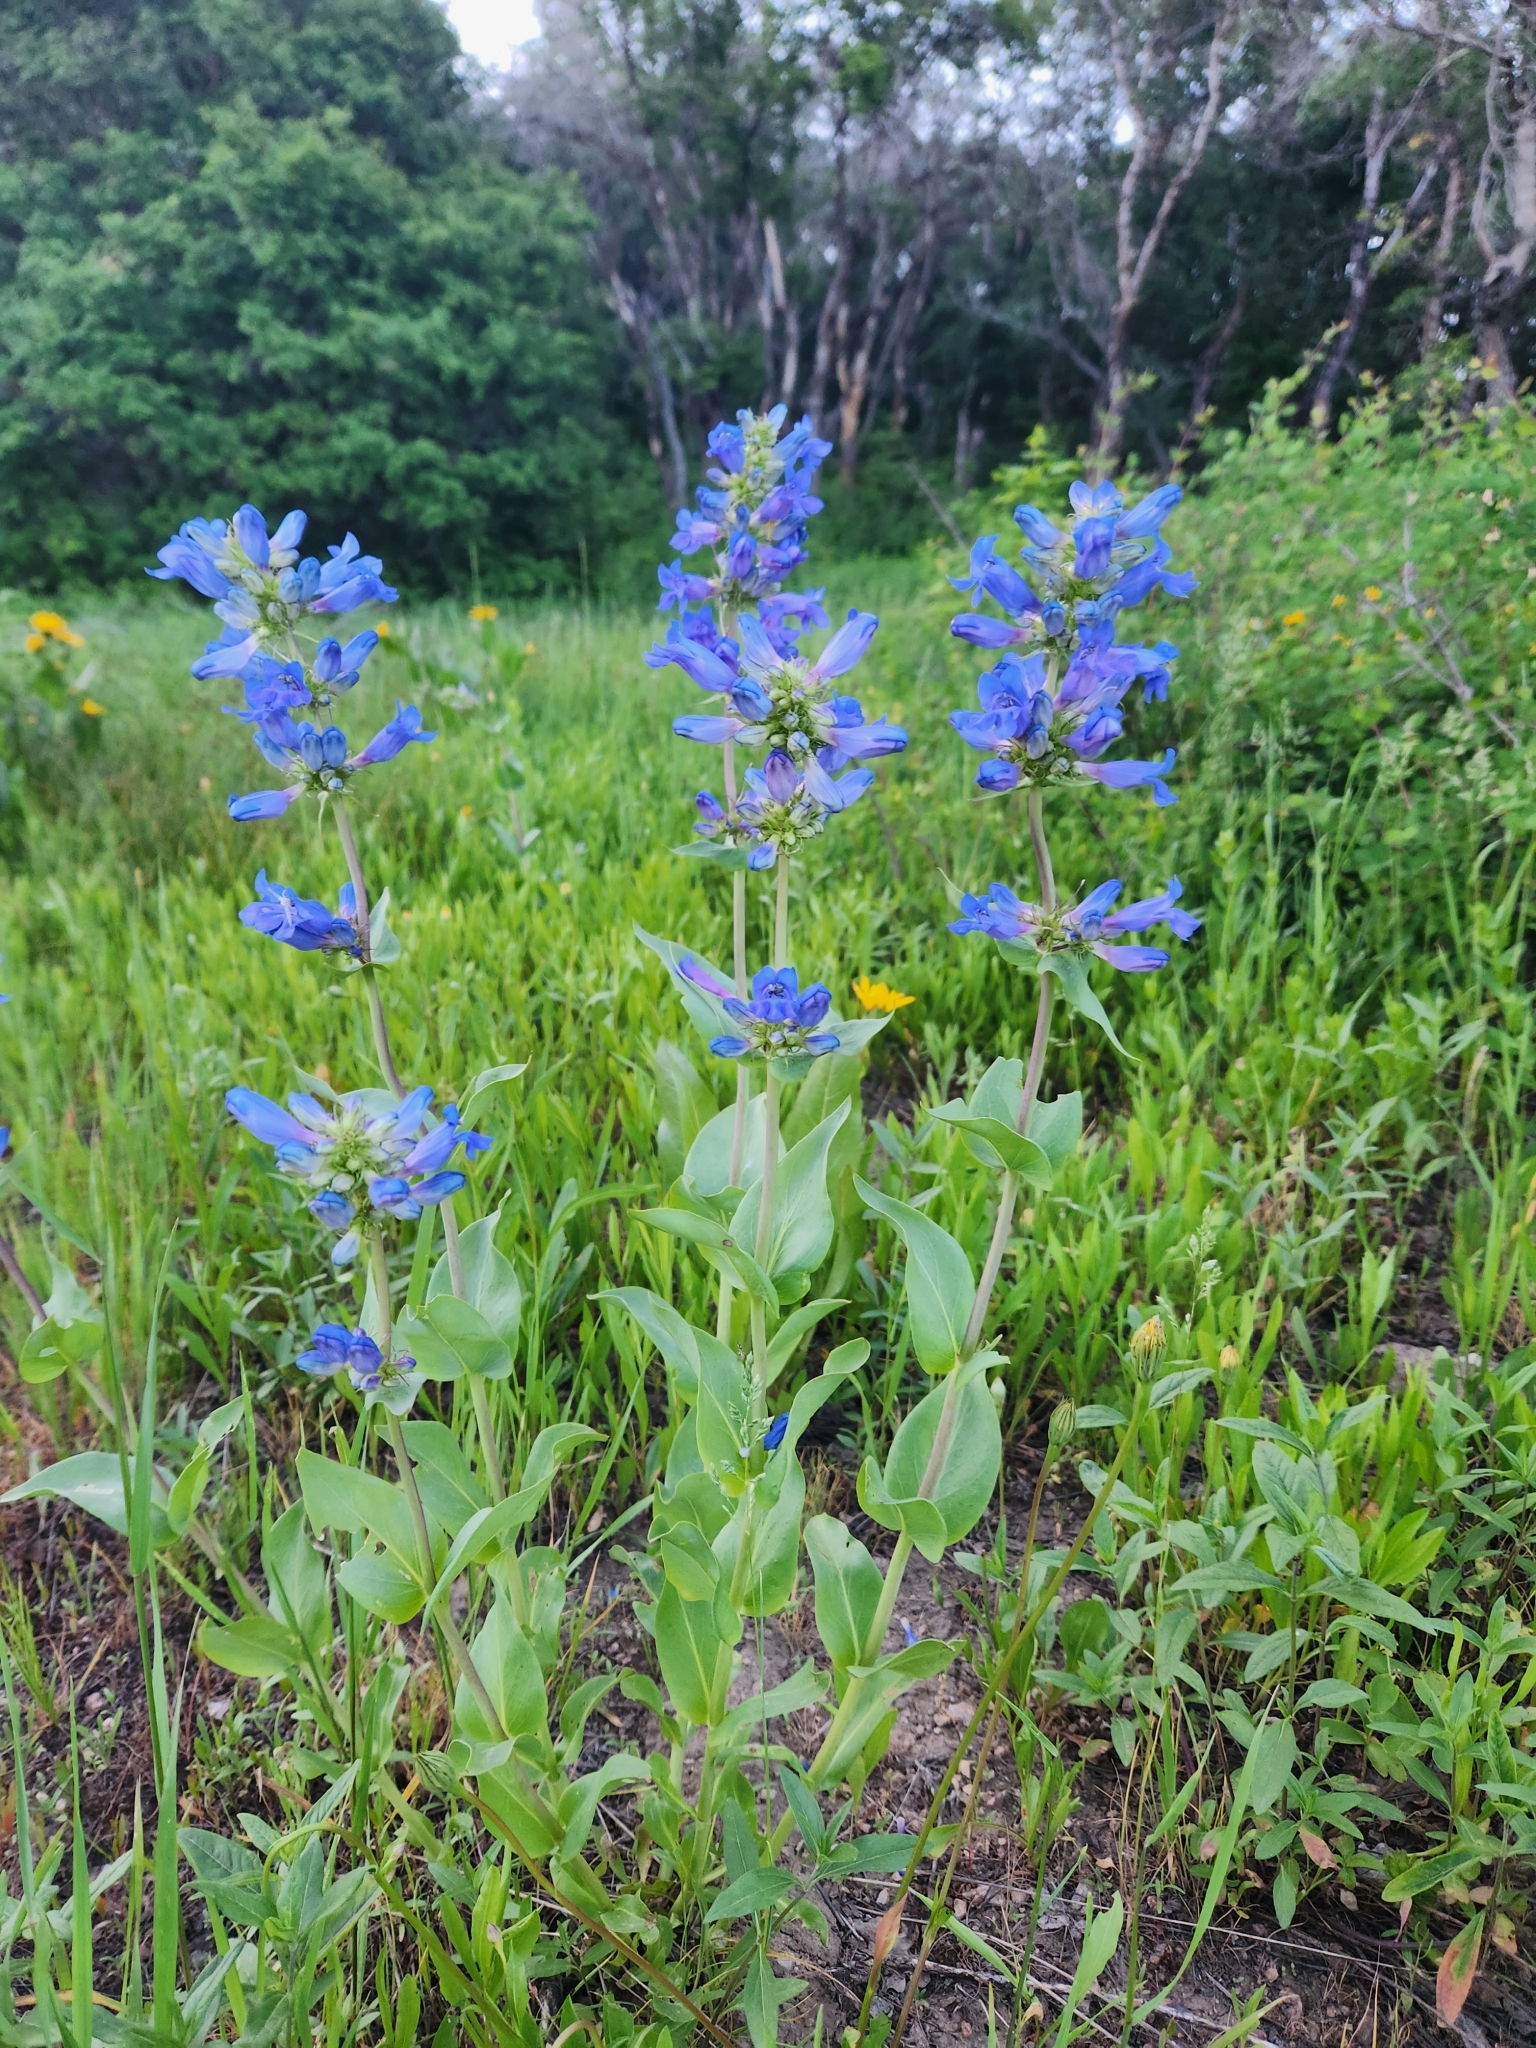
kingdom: Plantae
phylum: Tracheophyta
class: Magnoliopsida
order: Lamiales
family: Plantaginaceae
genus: Penstemon
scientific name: Penstemon cyananthus
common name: Wasatch penstemon
